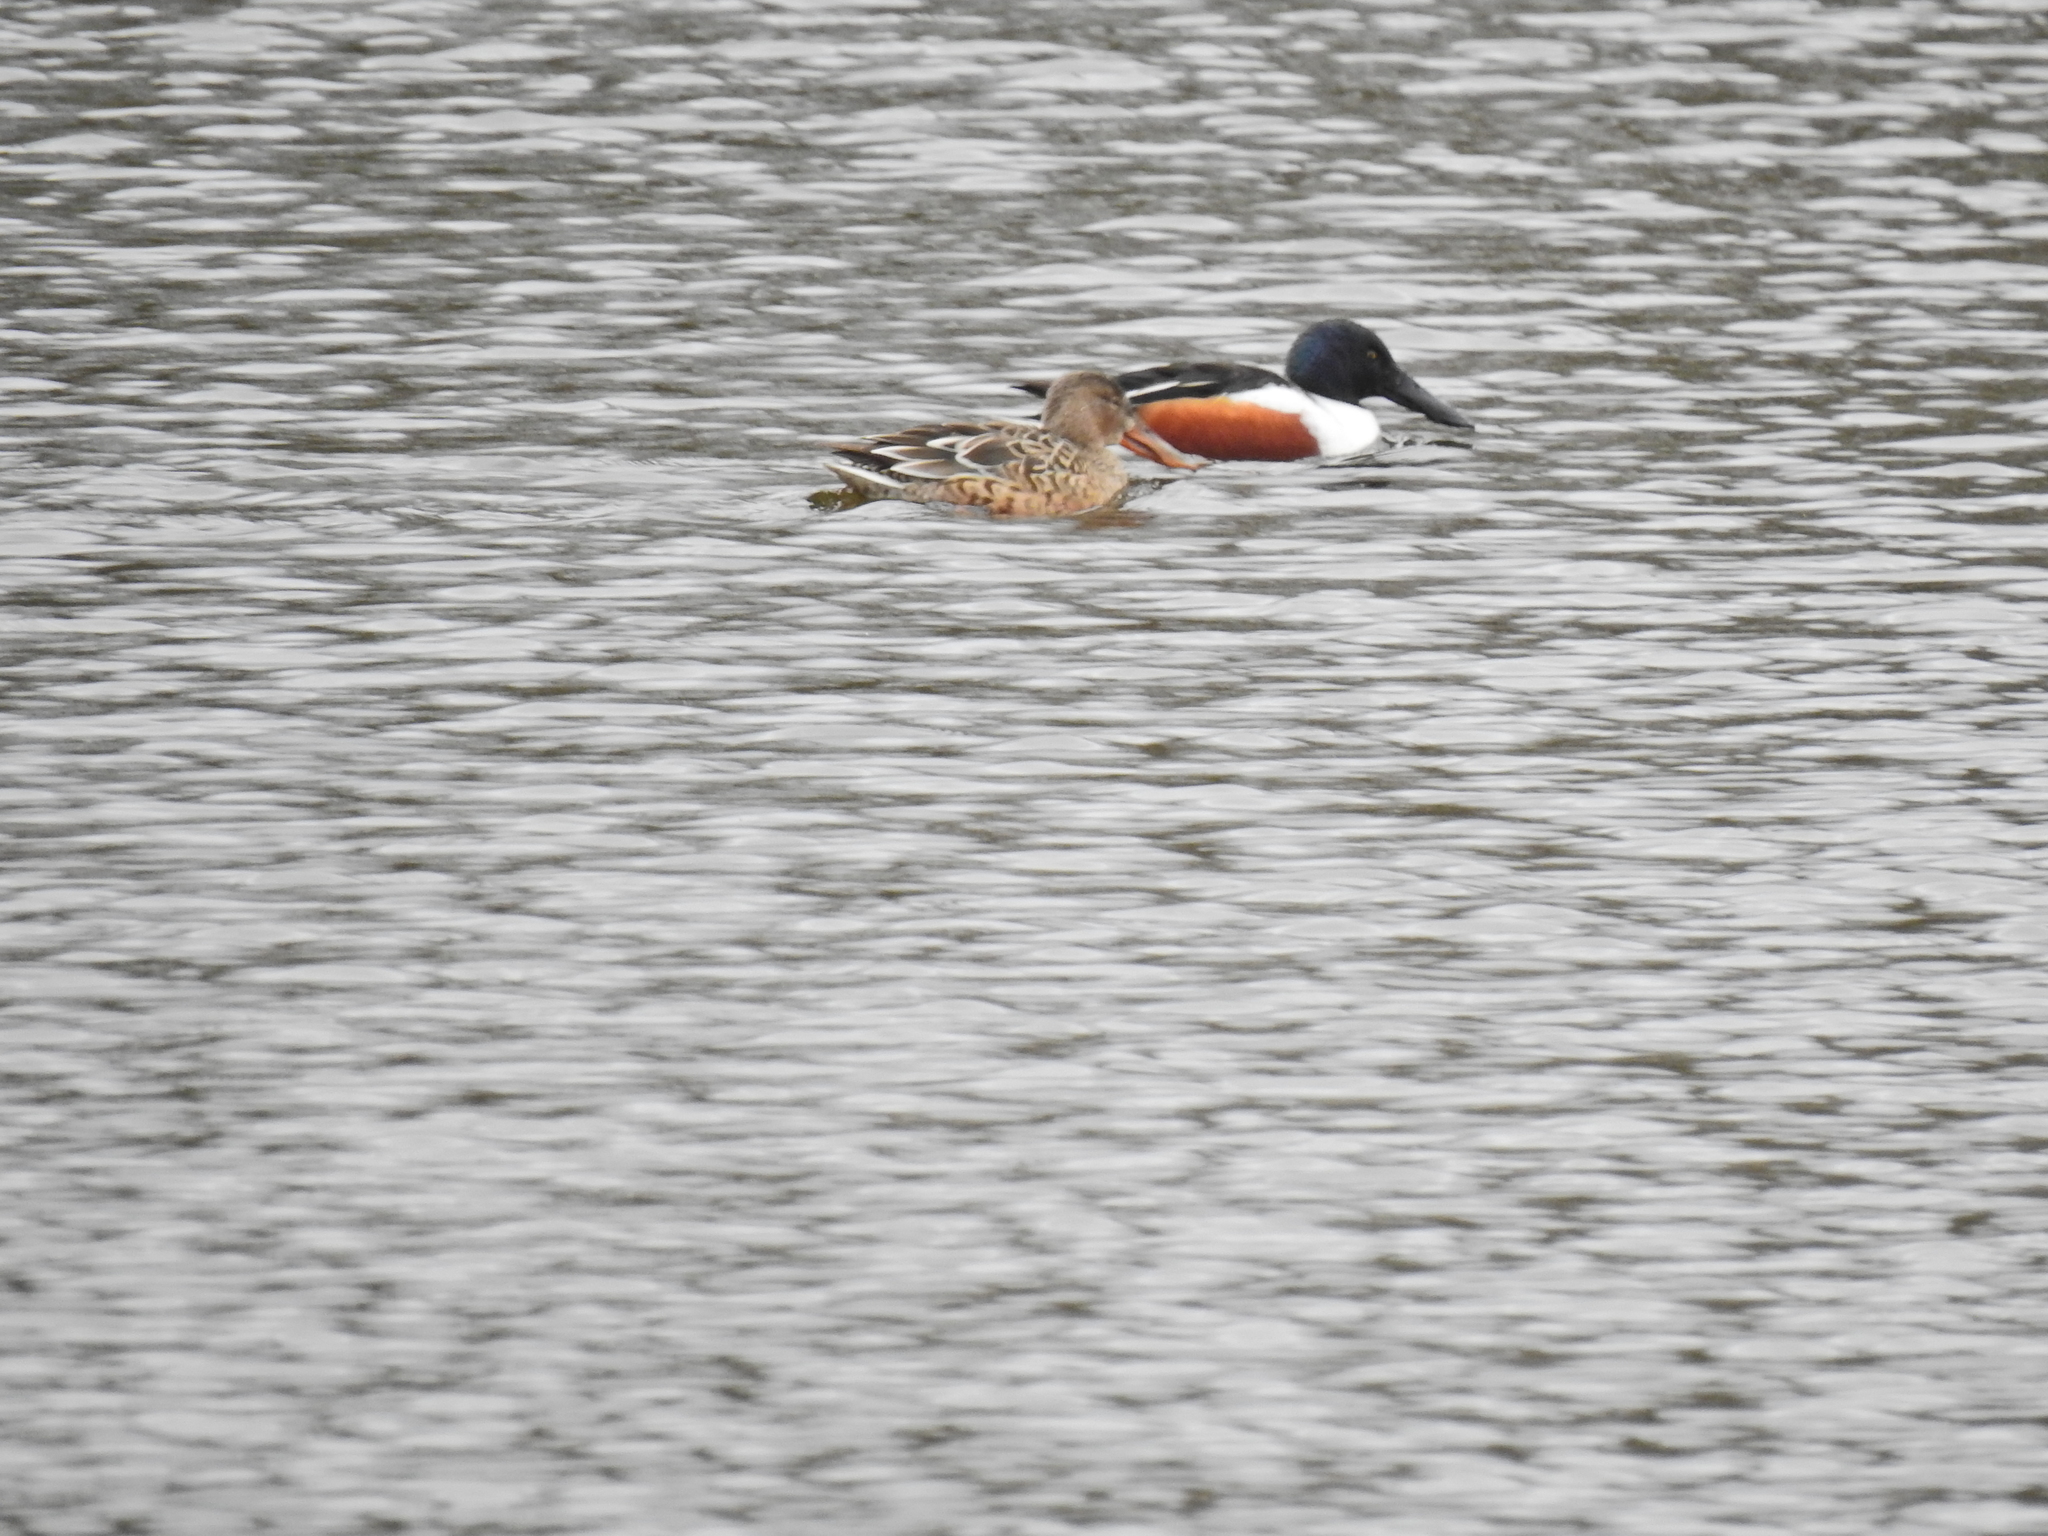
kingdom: Animalia
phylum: Chordata
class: Aves
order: Anseriformes
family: Anatidae
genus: Spatula
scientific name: Spatula clypeata
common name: Northern shoveler
